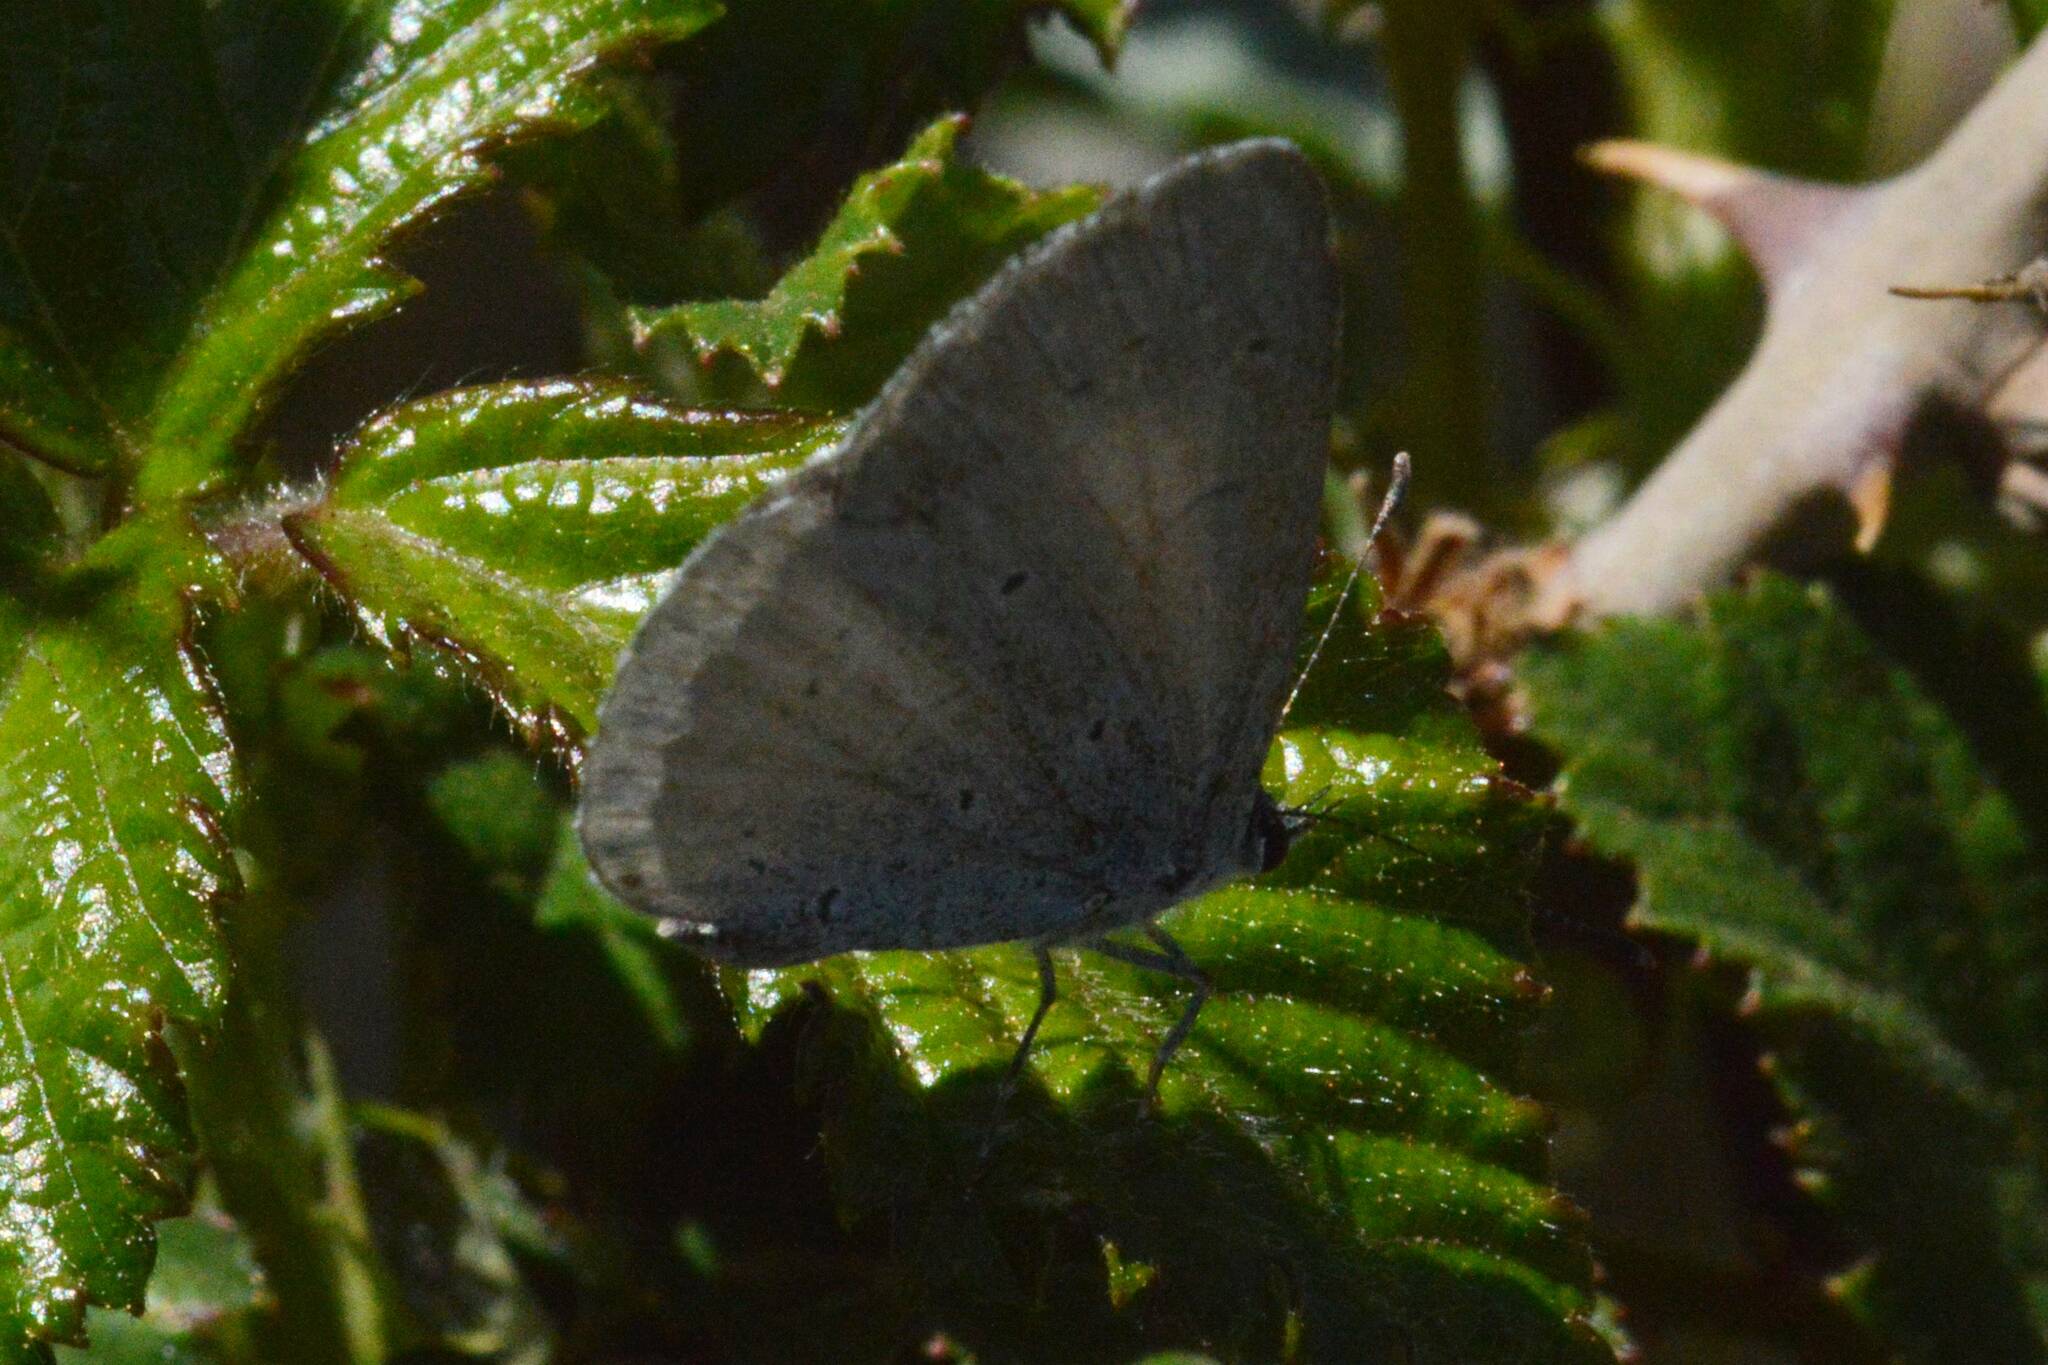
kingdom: Animalia
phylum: Arthropoda
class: Insecta
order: Lepidoptera
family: Lycaenidae
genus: Celastrina
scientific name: Celastrina argiolus
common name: Holly blue
